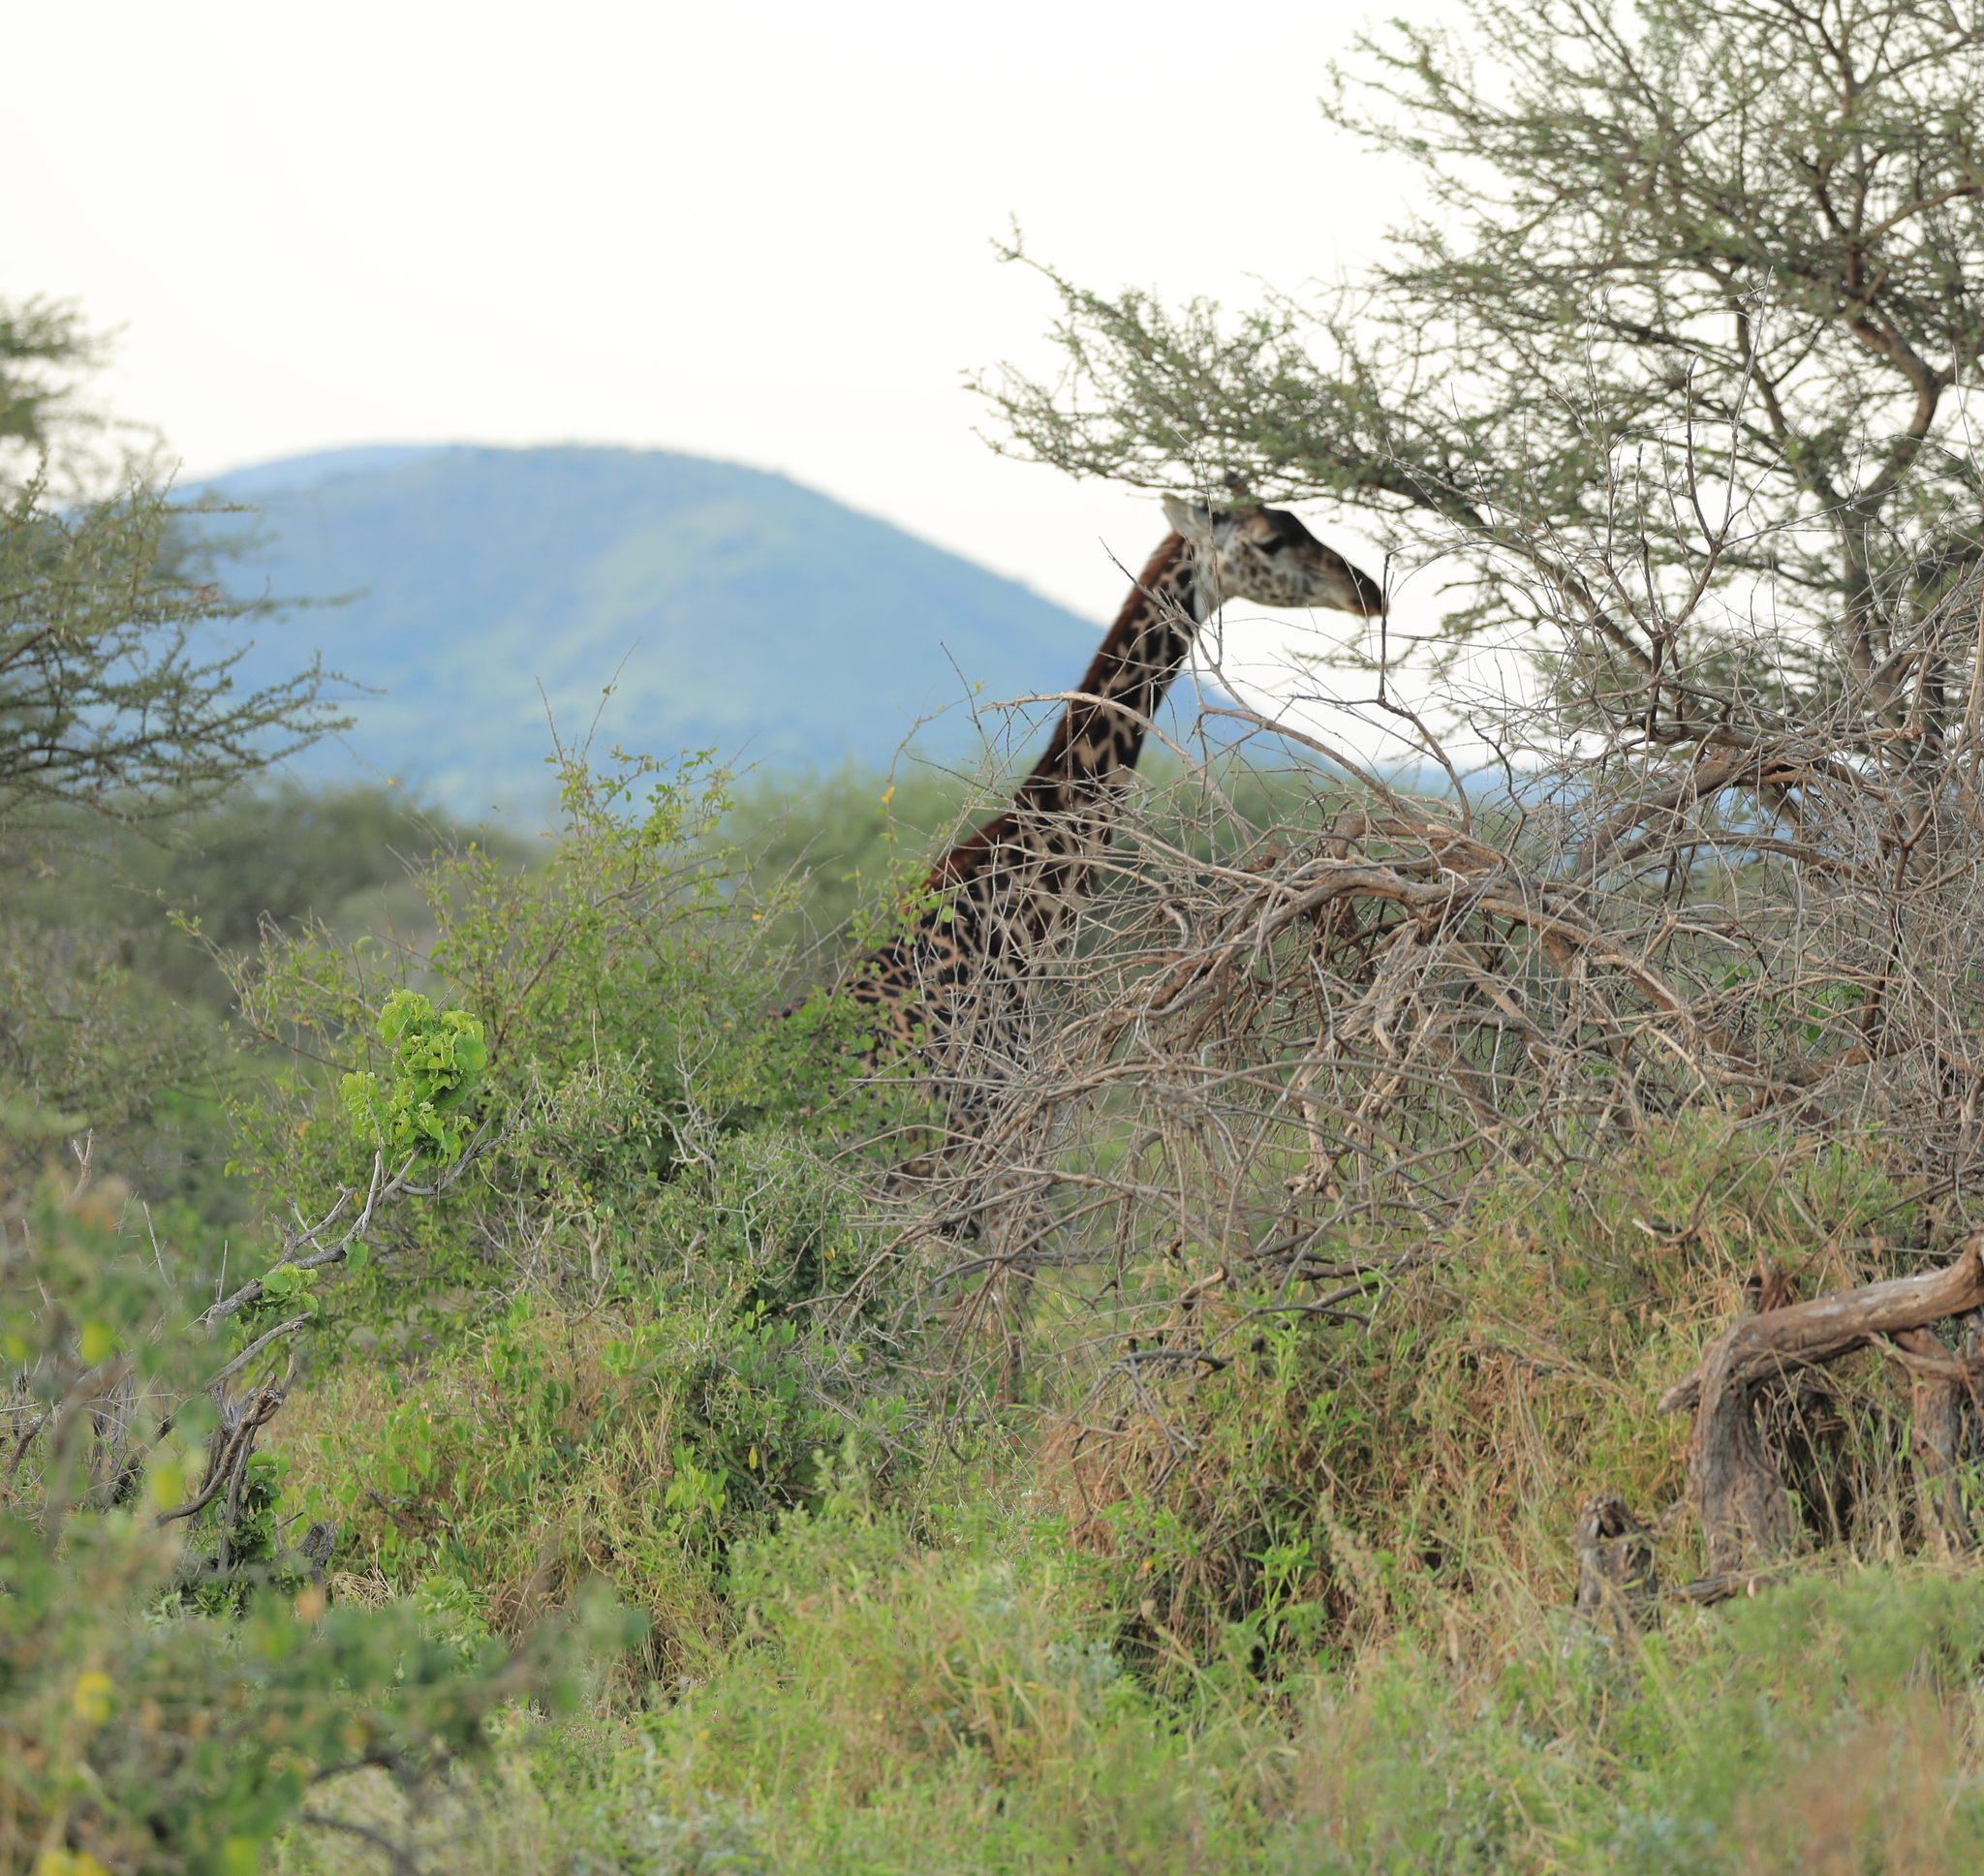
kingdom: Animalia
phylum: Chordata
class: Mammalia
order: Artiodactyla
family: Giraffidae
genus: Giraffa
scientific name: Giraffa tippelskirchi
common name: Masai giraffe
